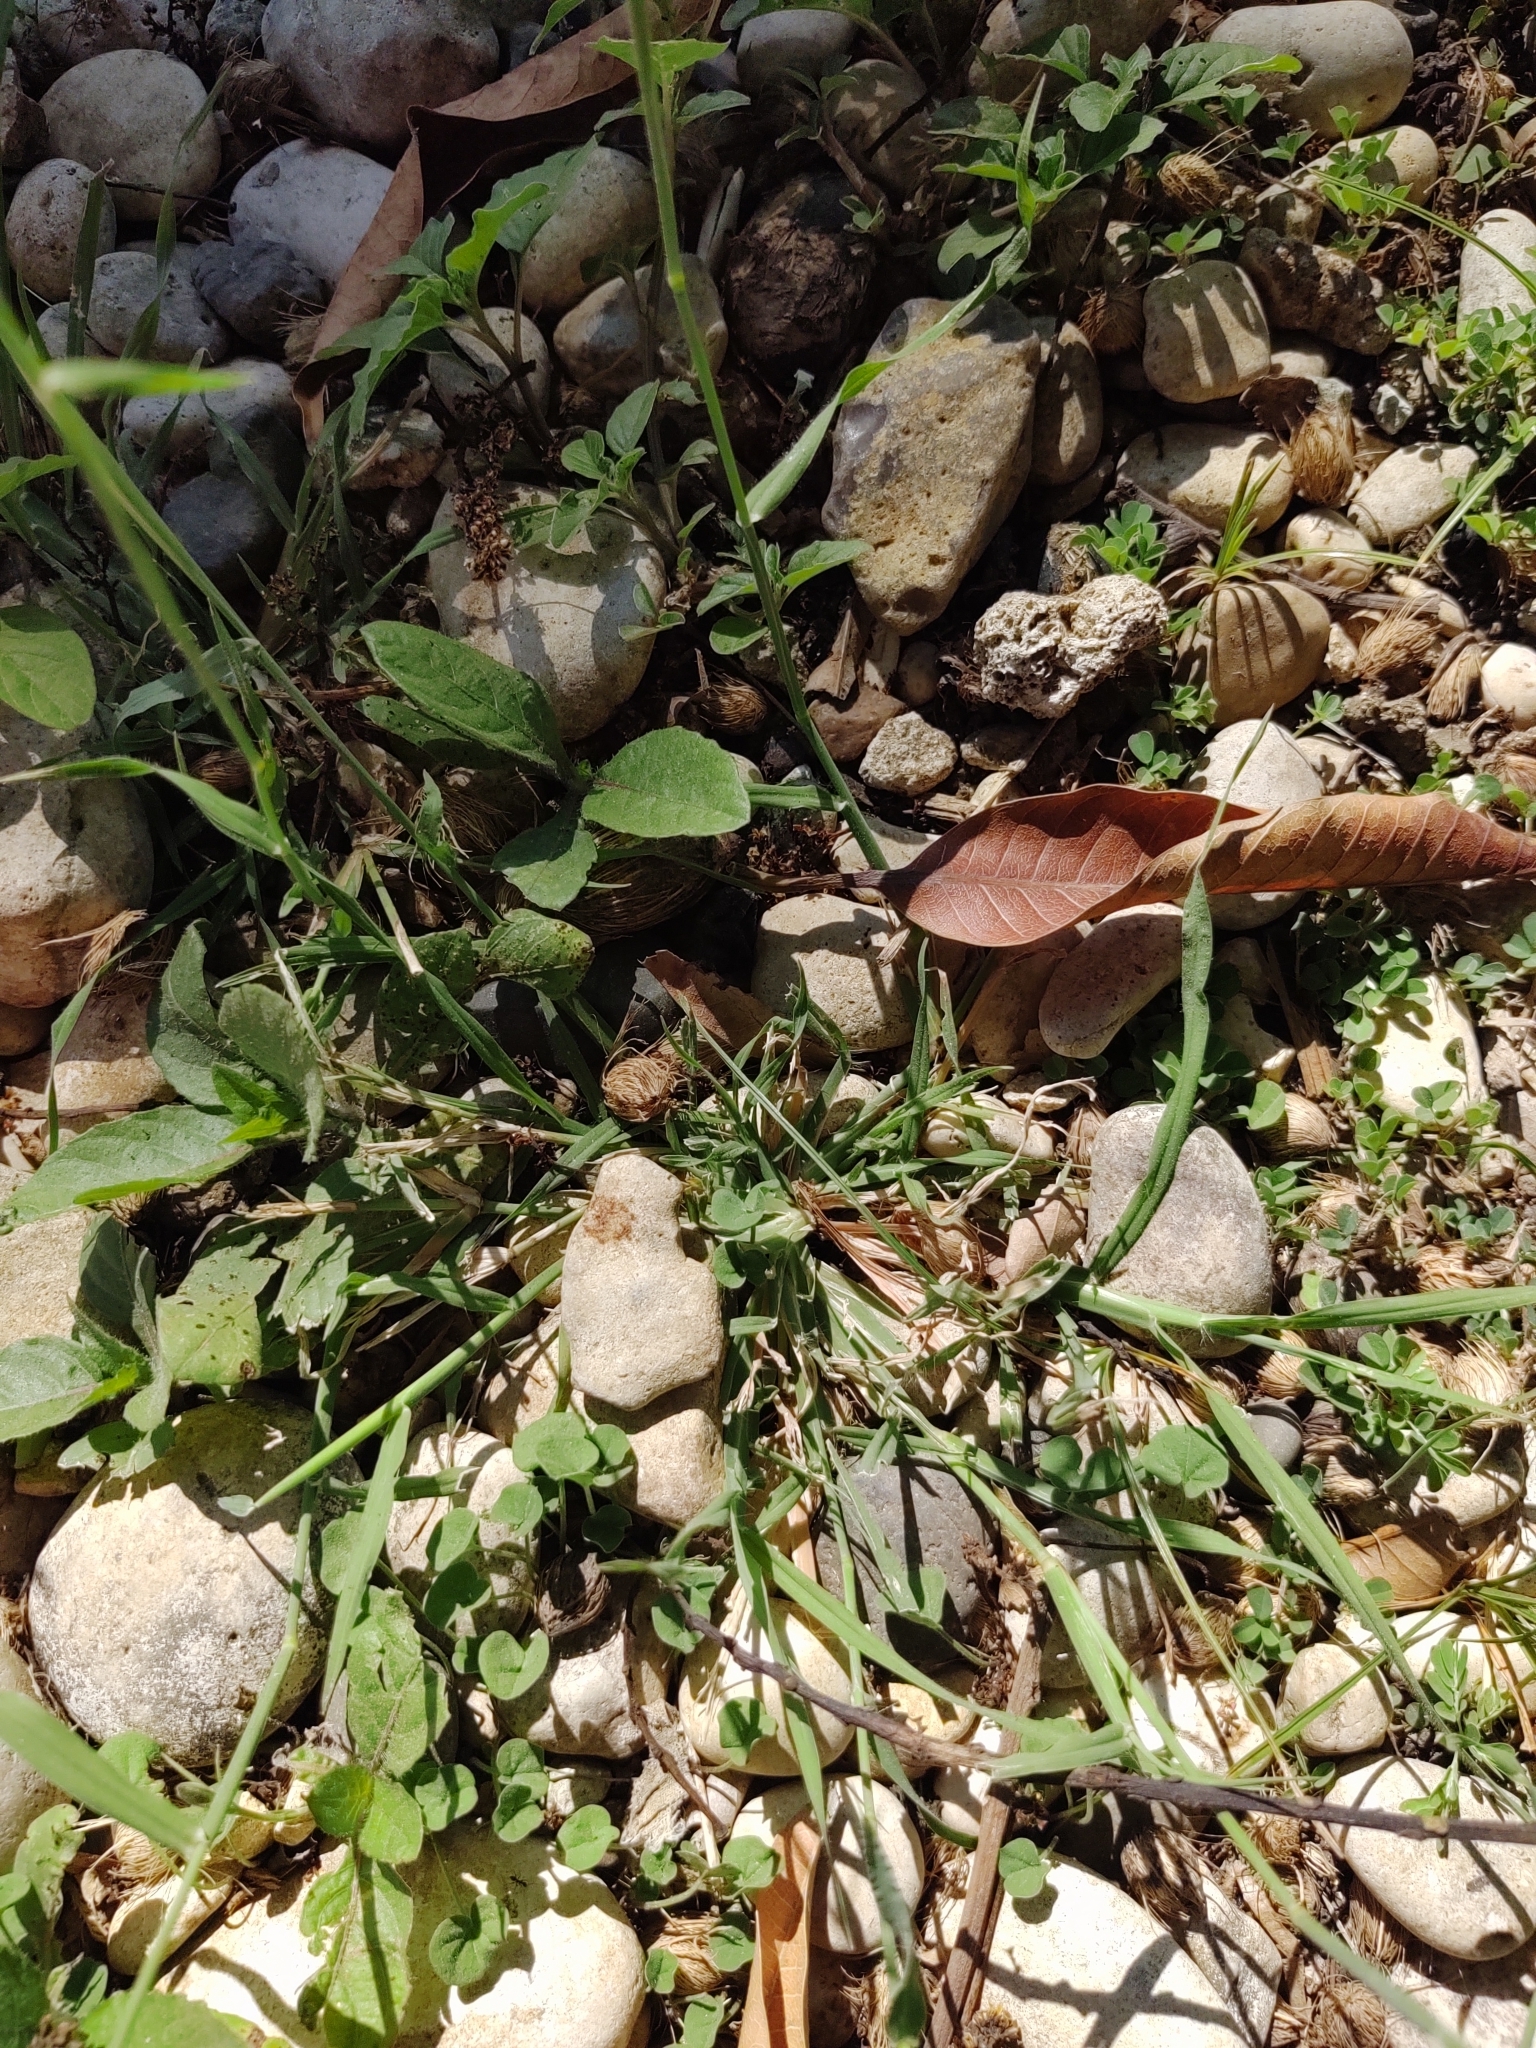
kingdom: Plantae
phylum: Tracheophyta
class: Magnoliopsida
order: Fabales
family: Fabaceae
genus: Mimosa
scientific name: Mimosa pudica
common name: Sensitive plant
